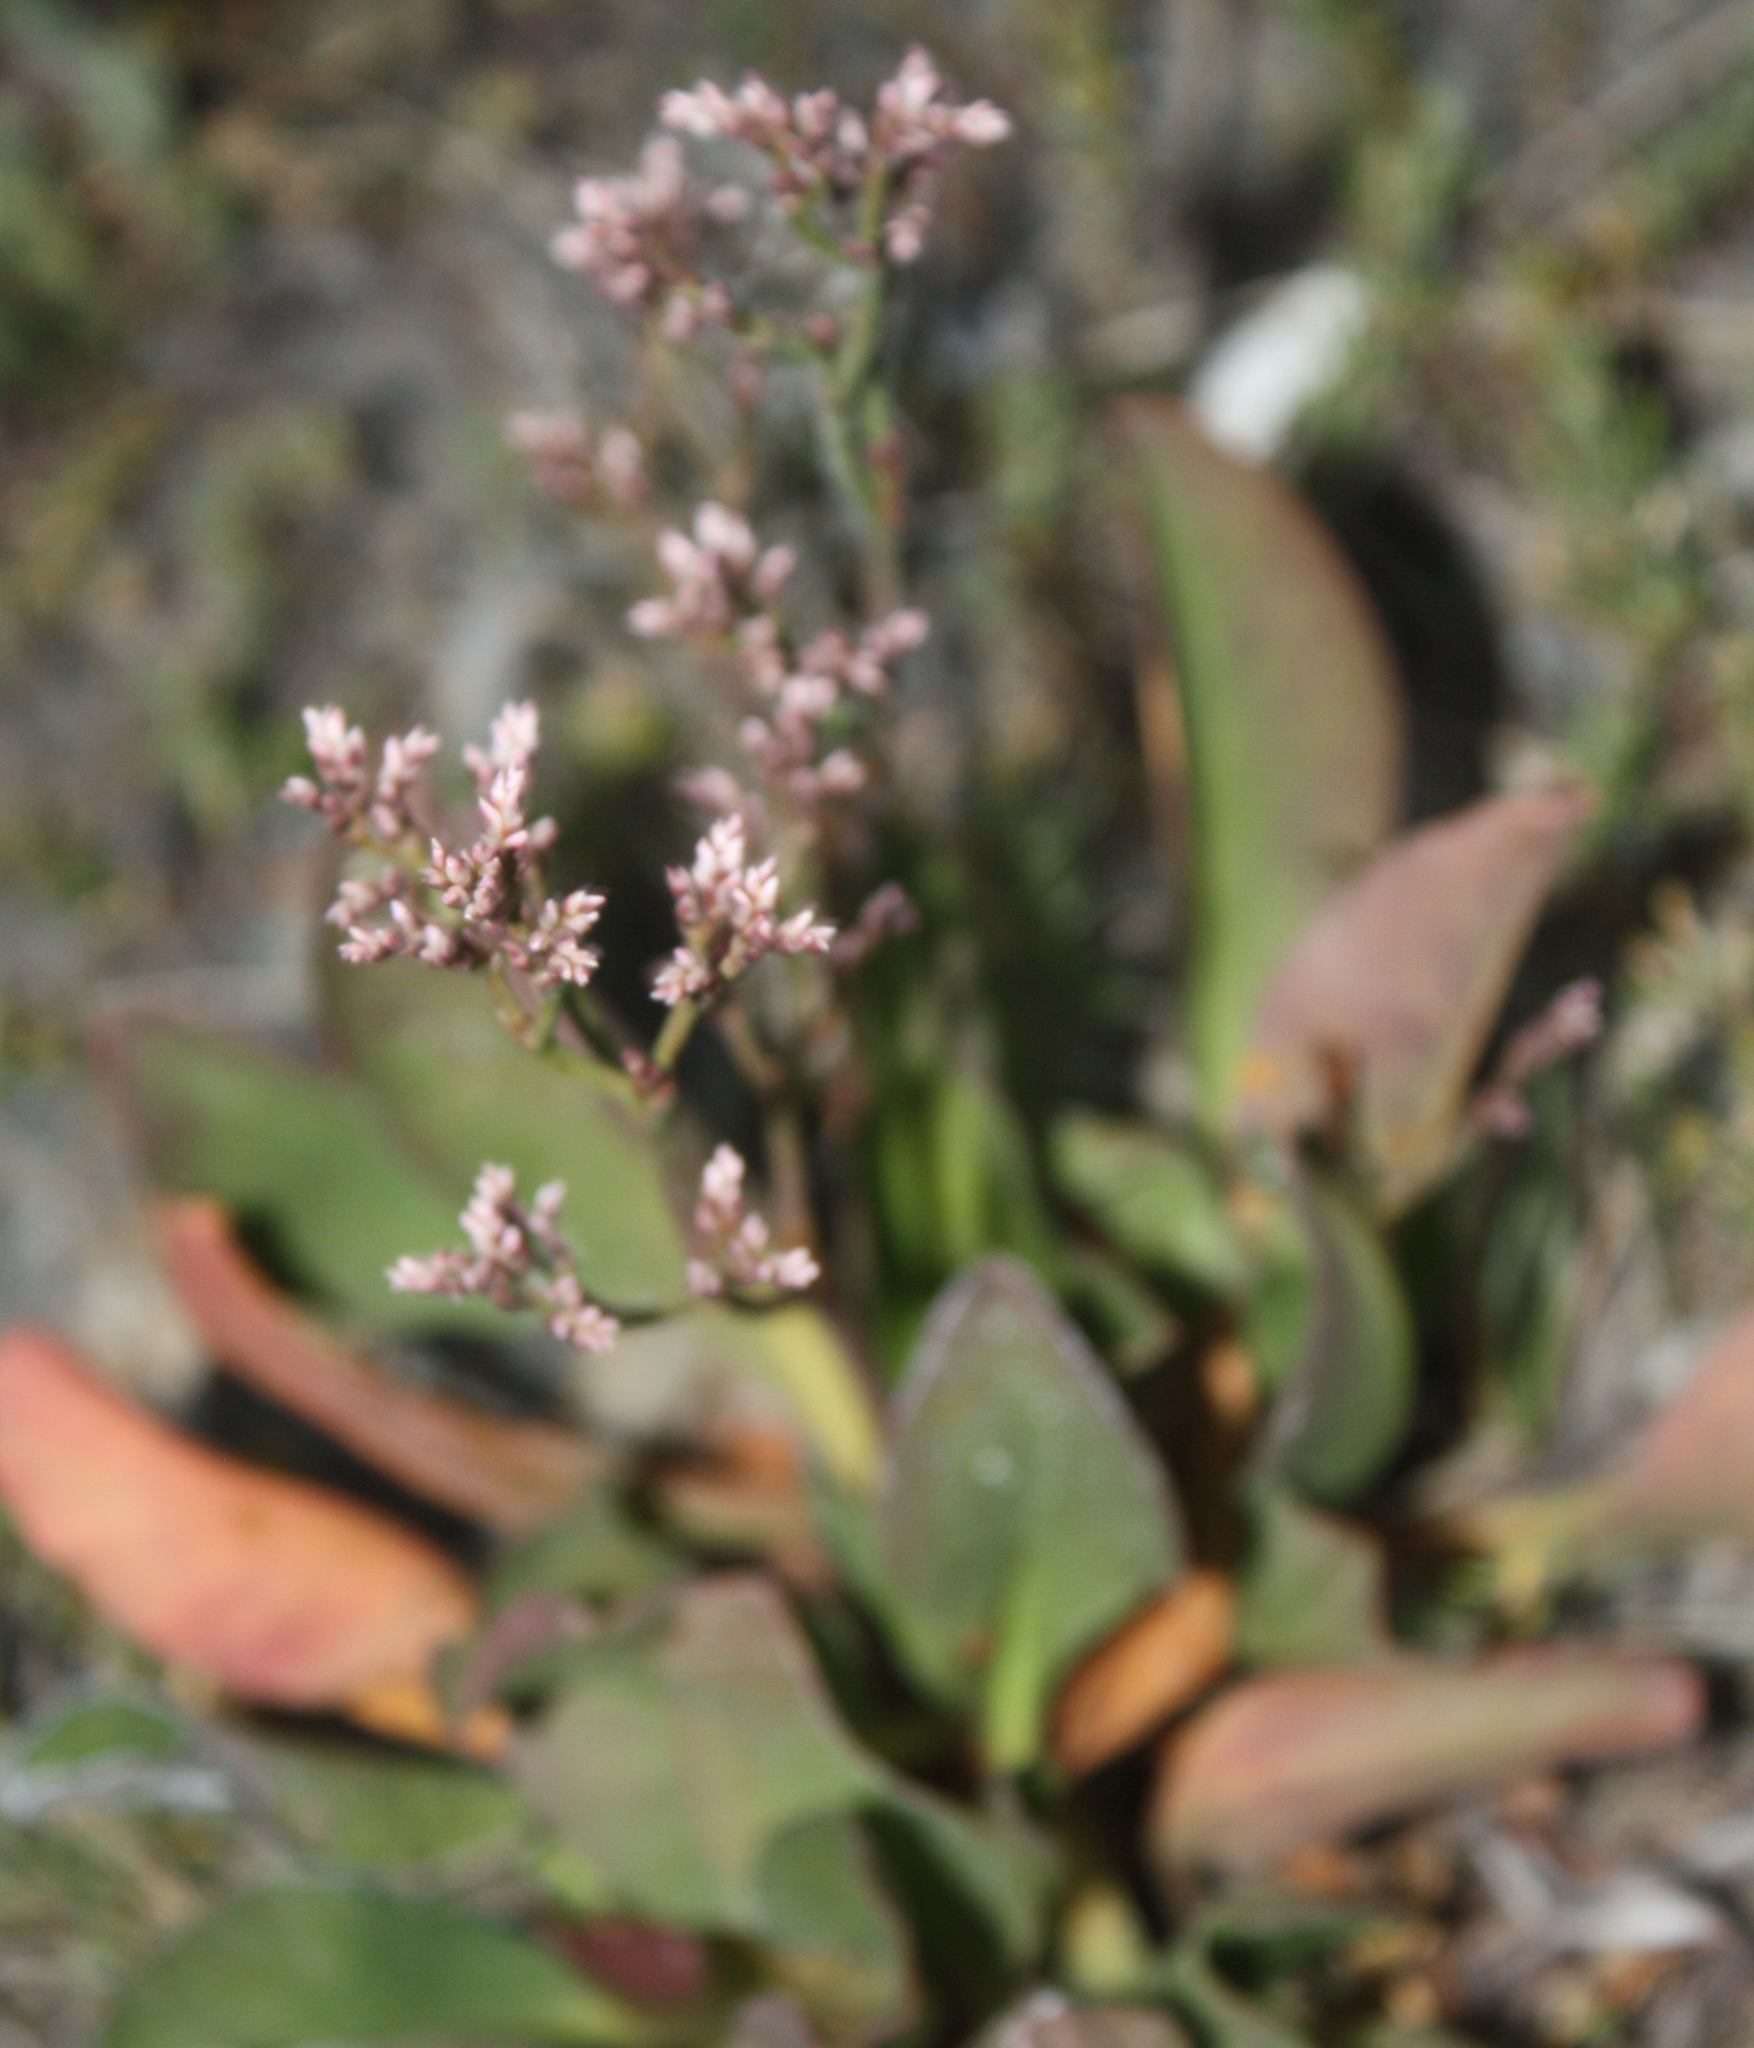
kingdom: Plantae
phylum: Tracheophyta
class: Magnoliopsida
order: Caryophyllales
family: Plumbaginaceae
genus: Limonium
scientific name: Limonium californicum
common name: Marsh-rosemary
